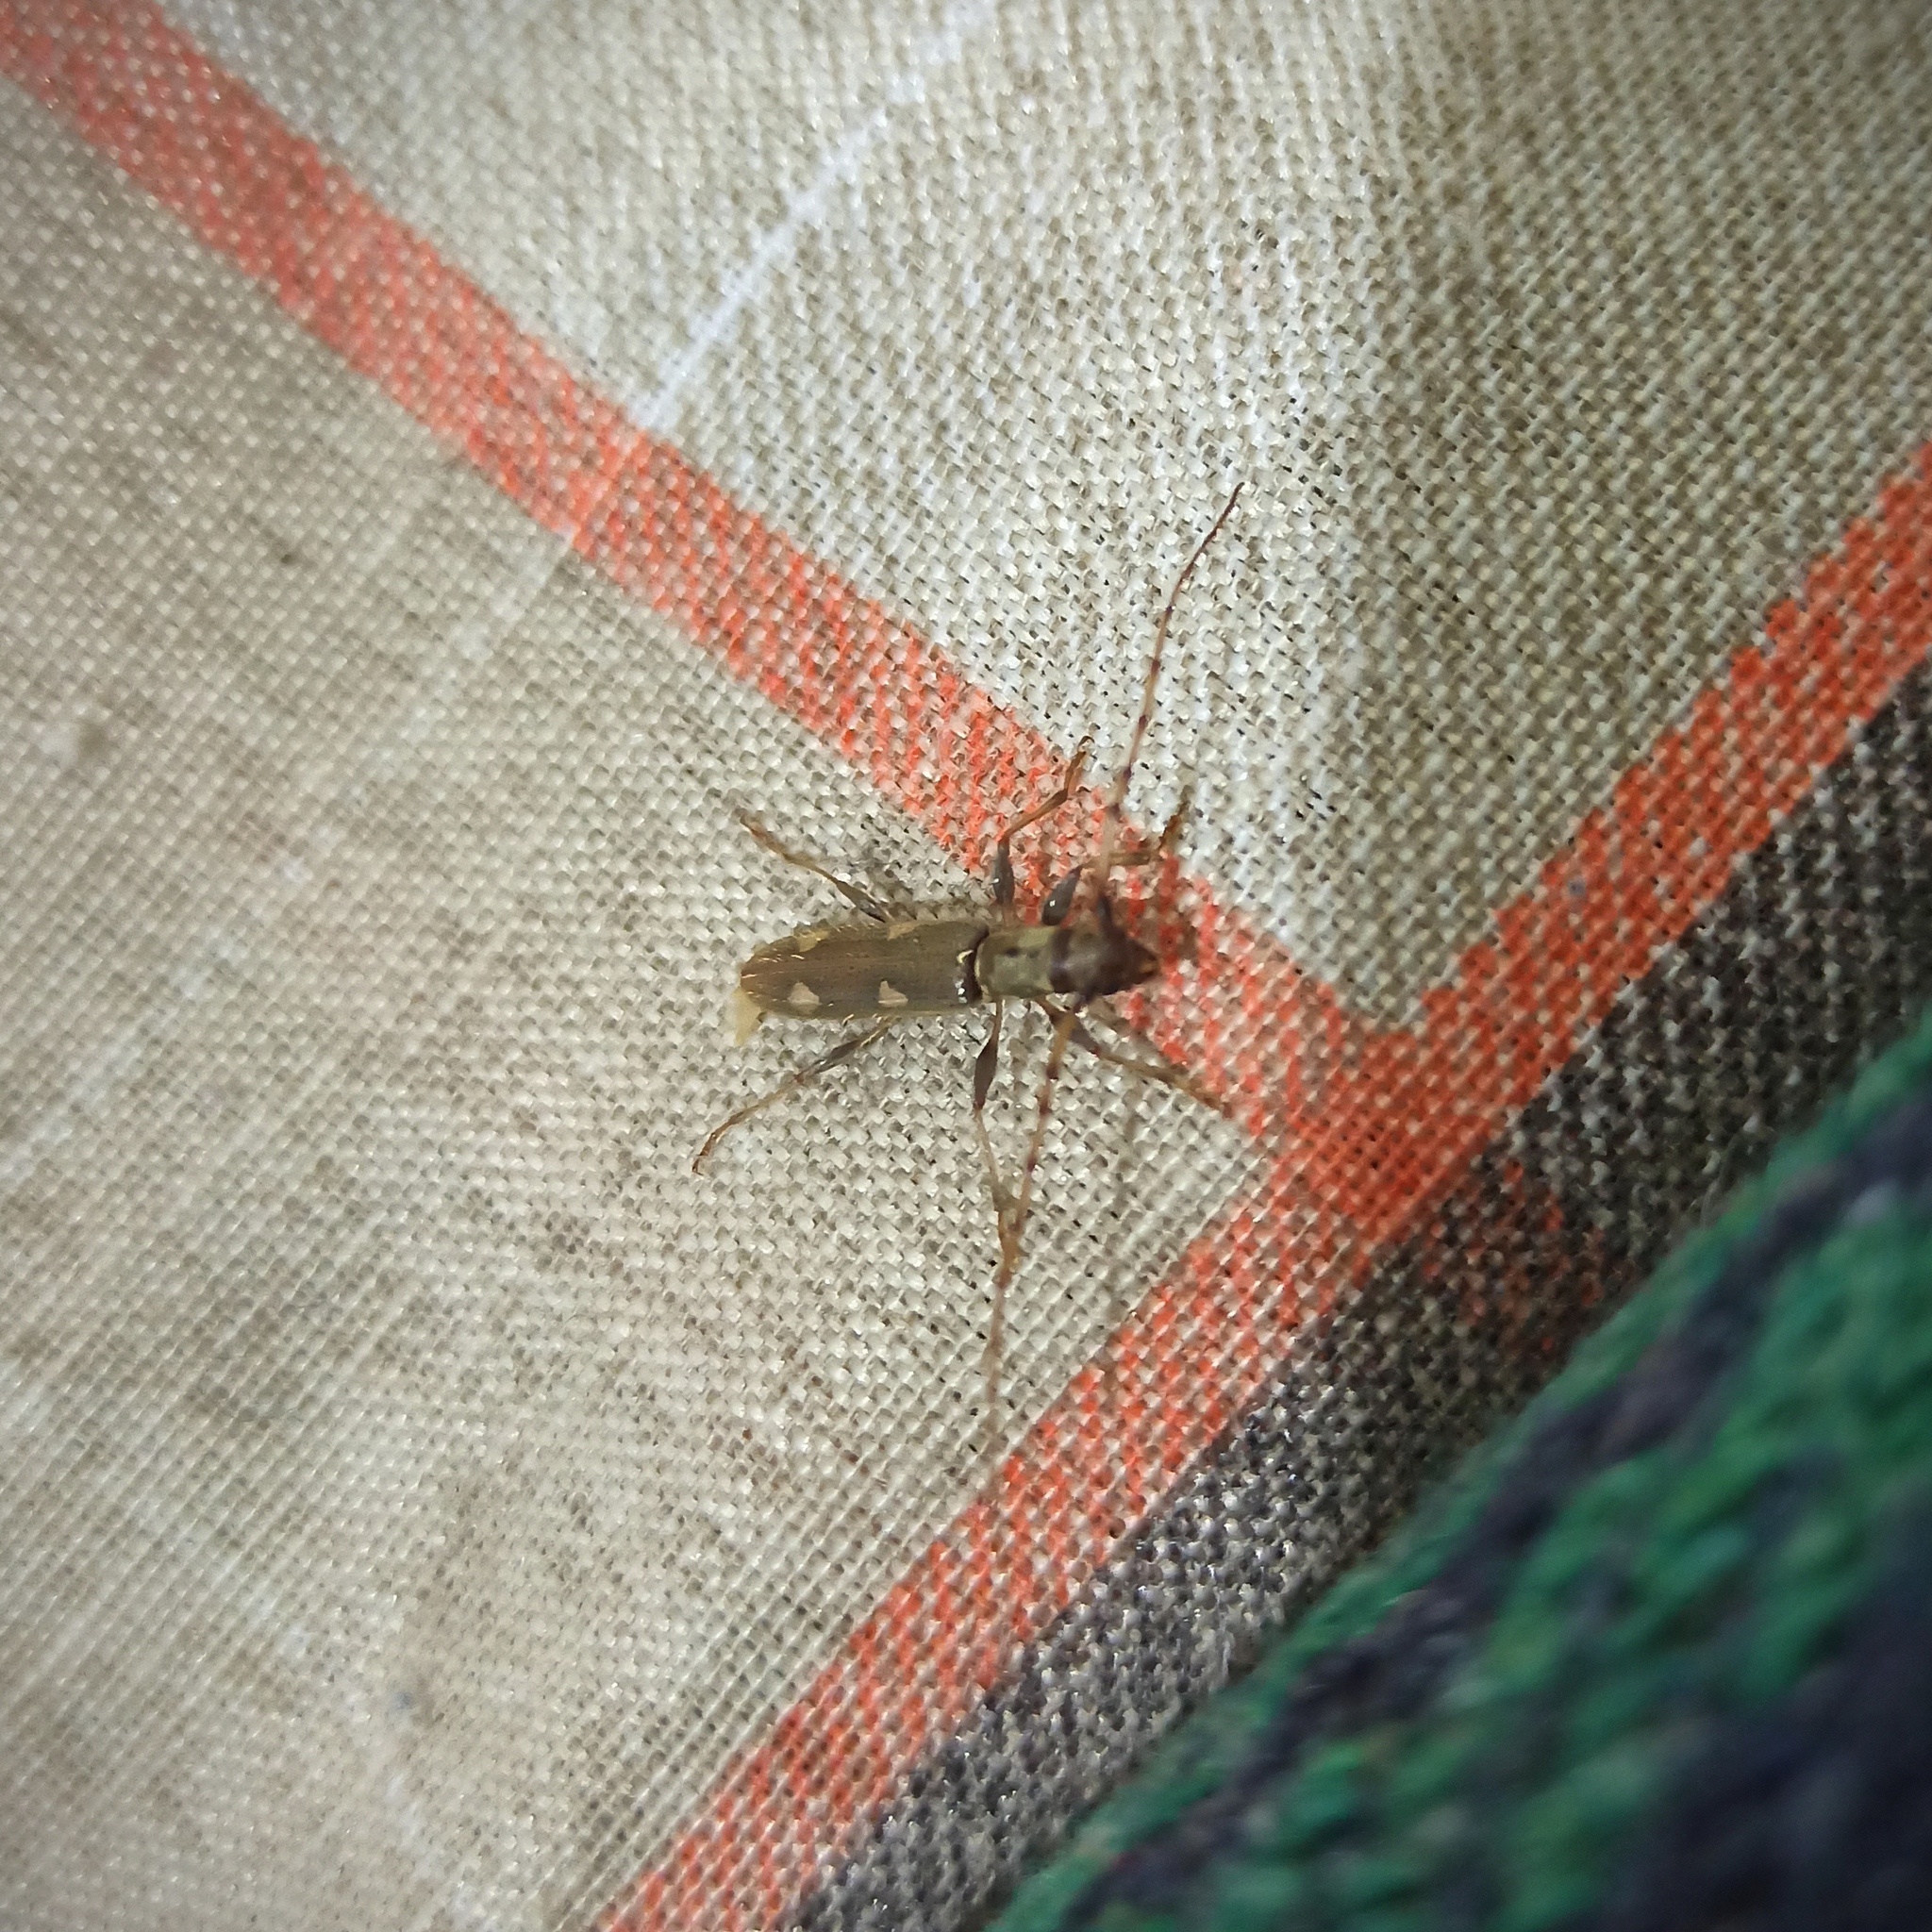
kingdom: Animalia
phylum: Arthropoda
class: Insecta
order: Coleoptera
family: Cerambycidae
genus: Neocompsa
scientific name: Neocompsa textilis
